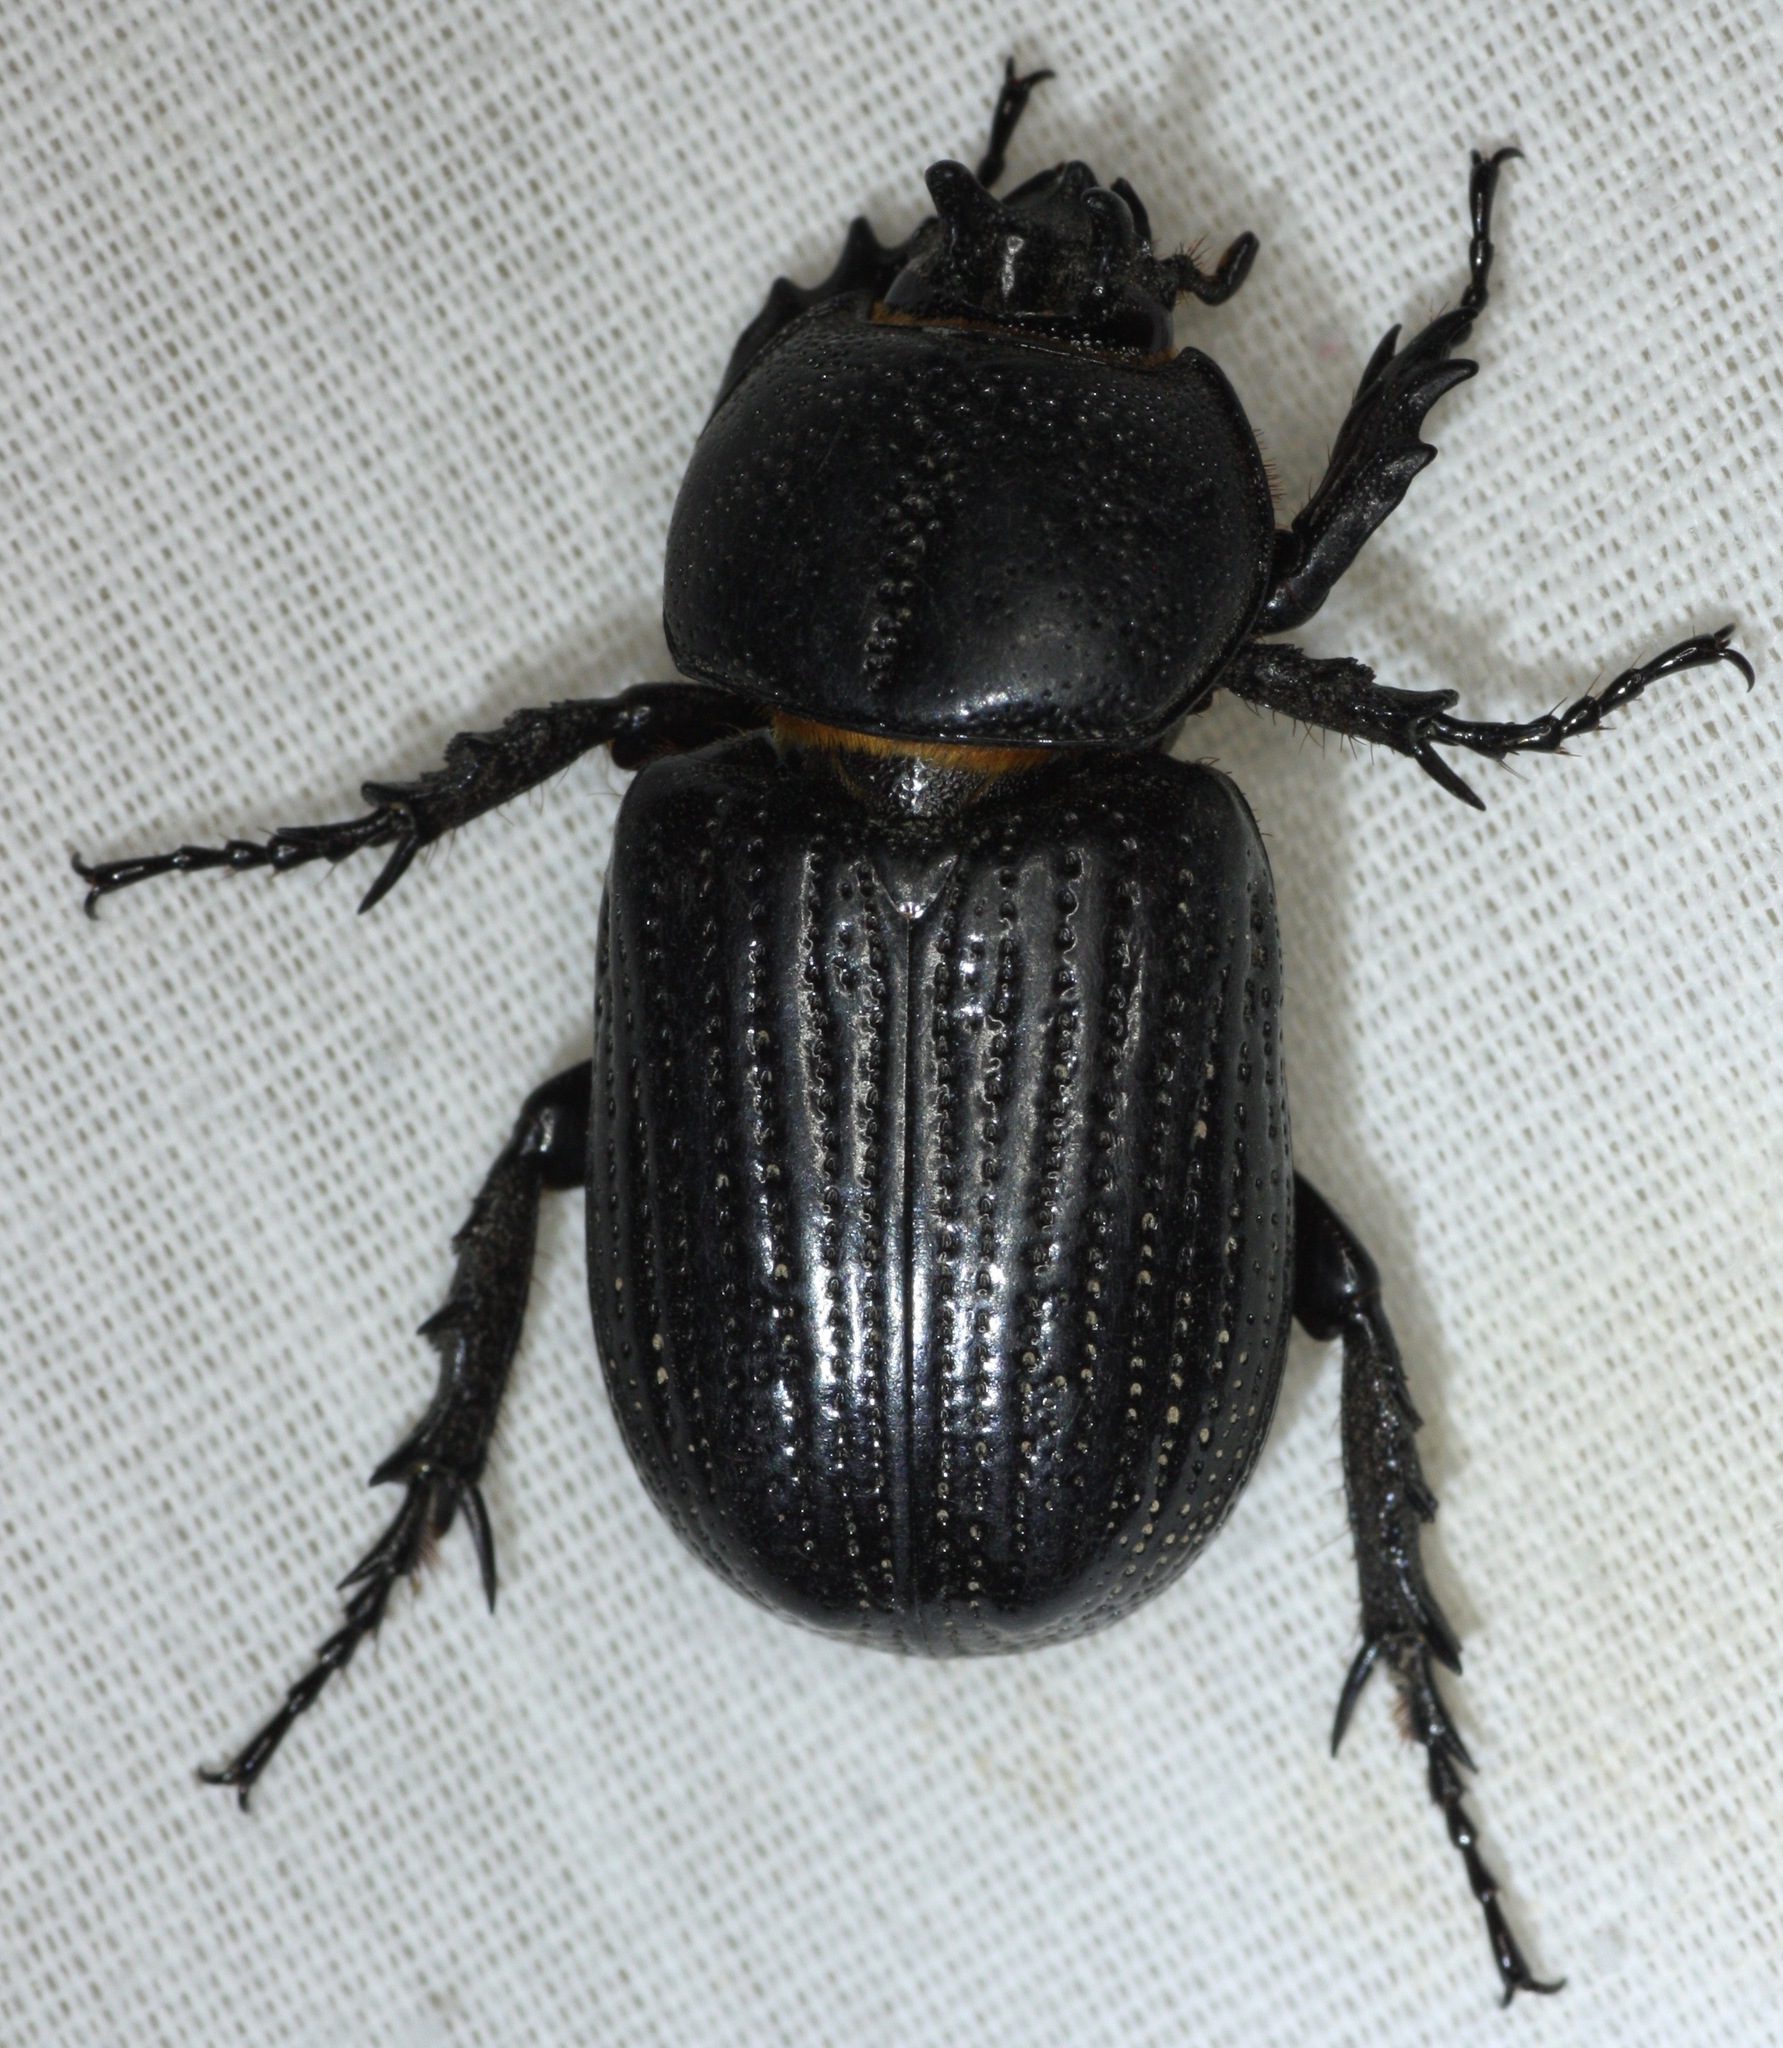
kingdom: Animalia
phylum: Arthropoda
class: Insecta
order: Coleoptera
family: Scarabaeidae
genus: Hemiphileurus
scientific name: Hemiphileurus illatus
